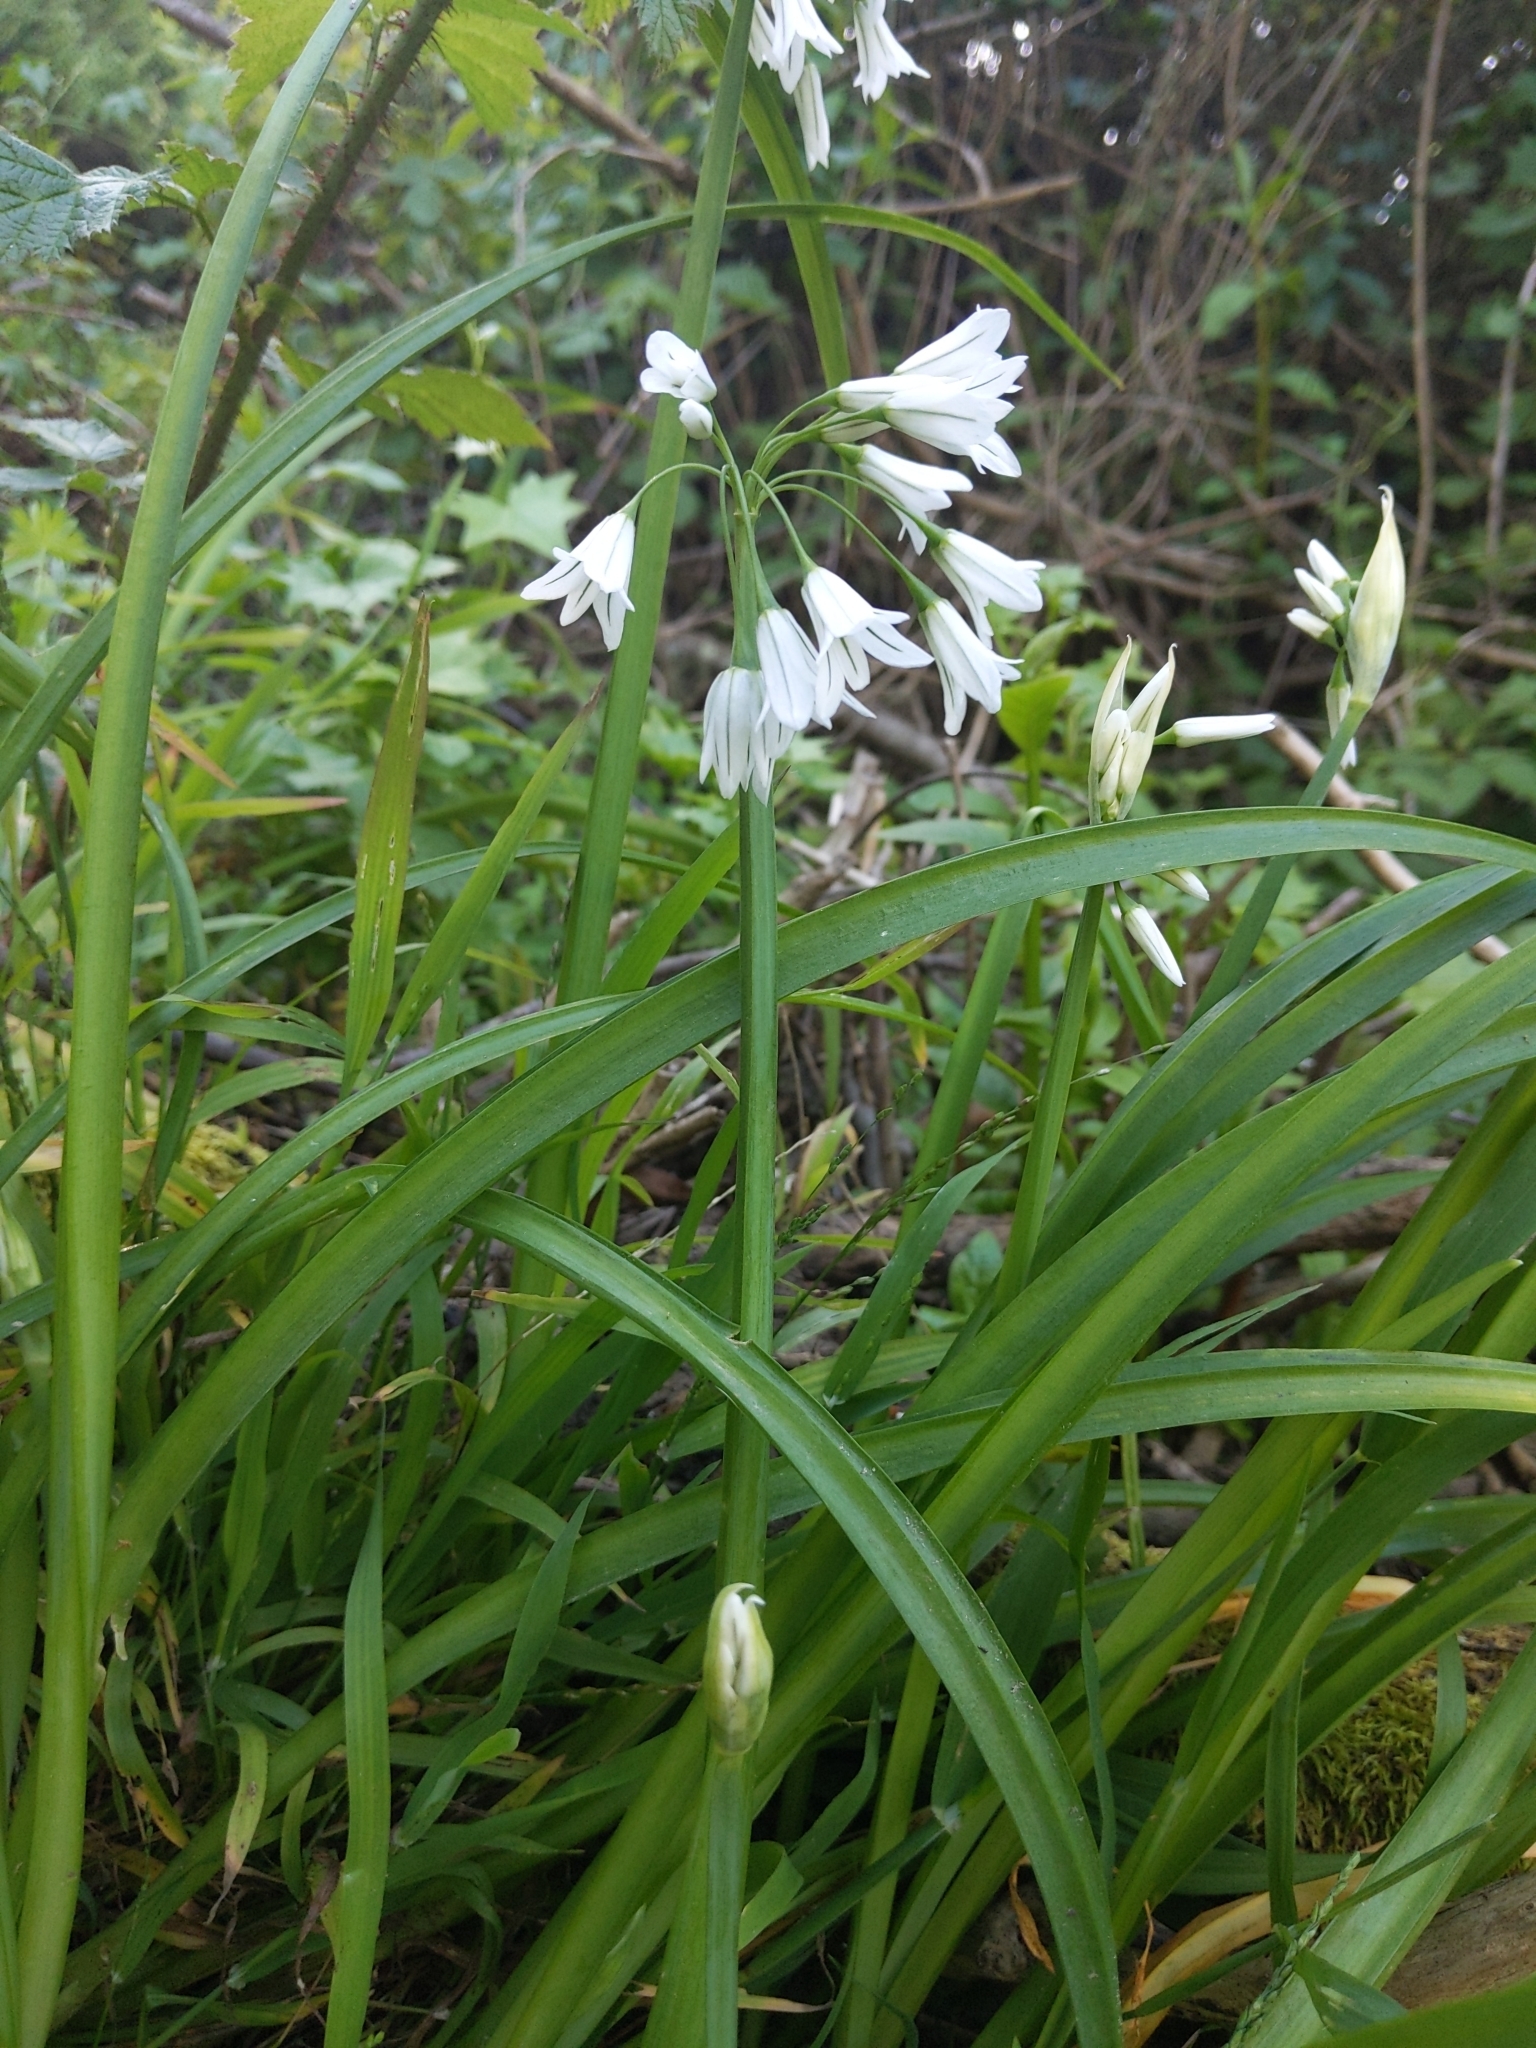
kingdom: Plantae
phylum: Tracheophyta
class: Liliopsida
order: Asparagales
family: Amaryllidaceae
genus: Allium
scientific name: Allium triquetrum
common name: Three-cornered garlic
